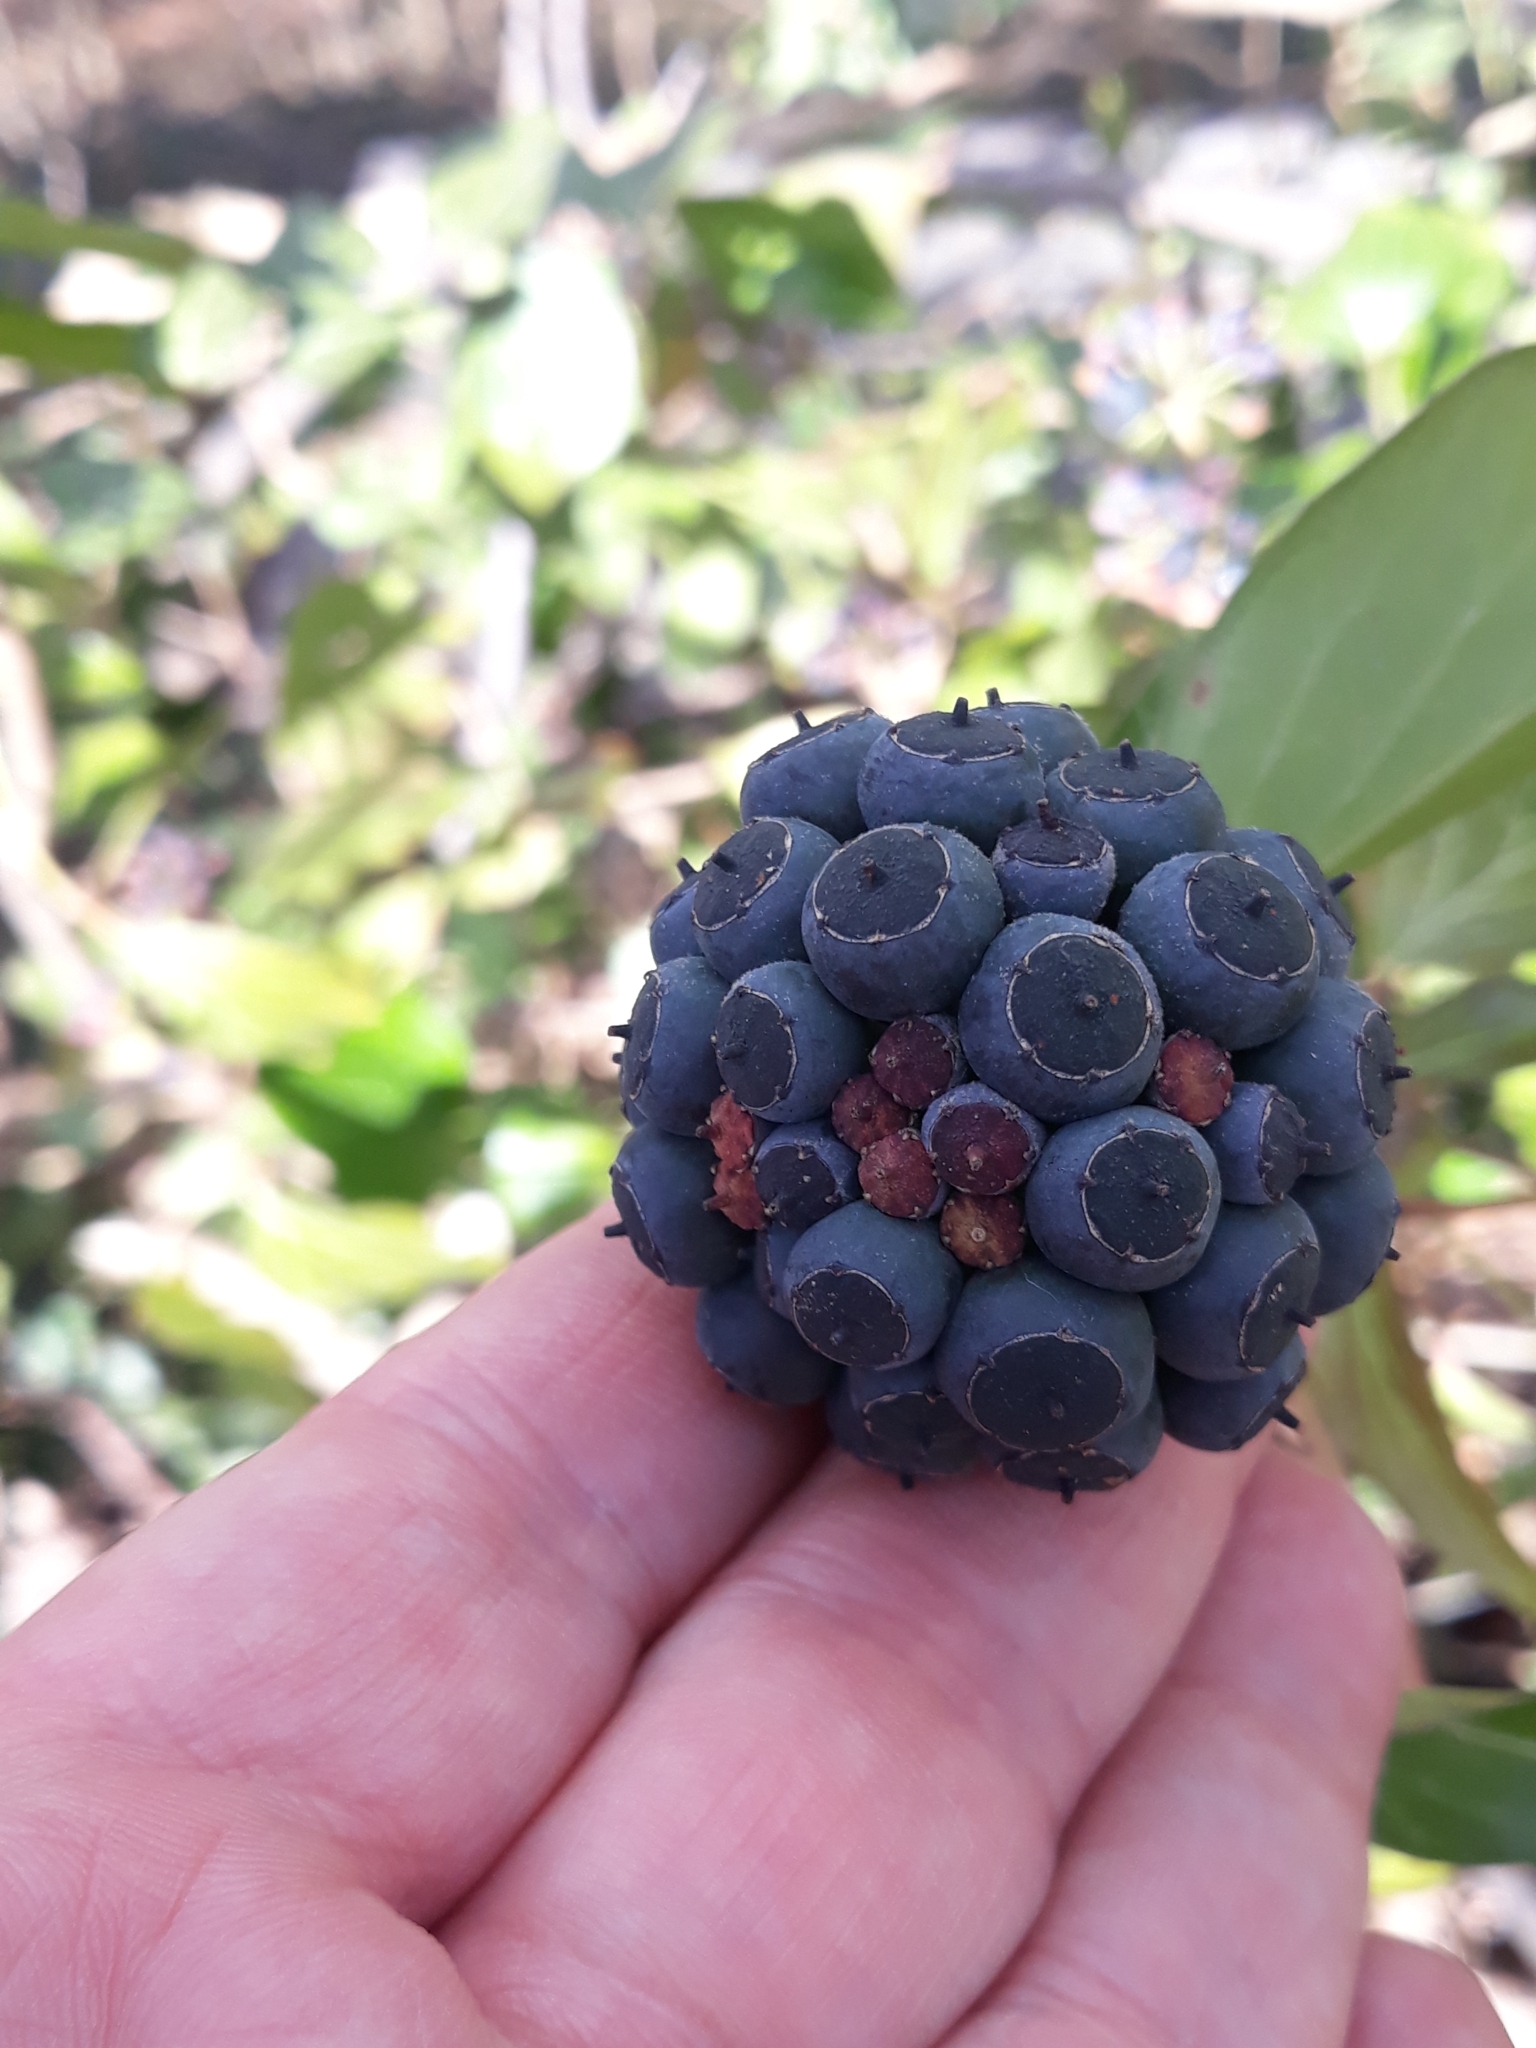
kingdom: Plantae
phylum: Tracheophyta
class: Magnoliopsida
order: Apiales
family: Araliaceae
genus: Hedera
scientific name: Hedera helix
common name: Ivy
